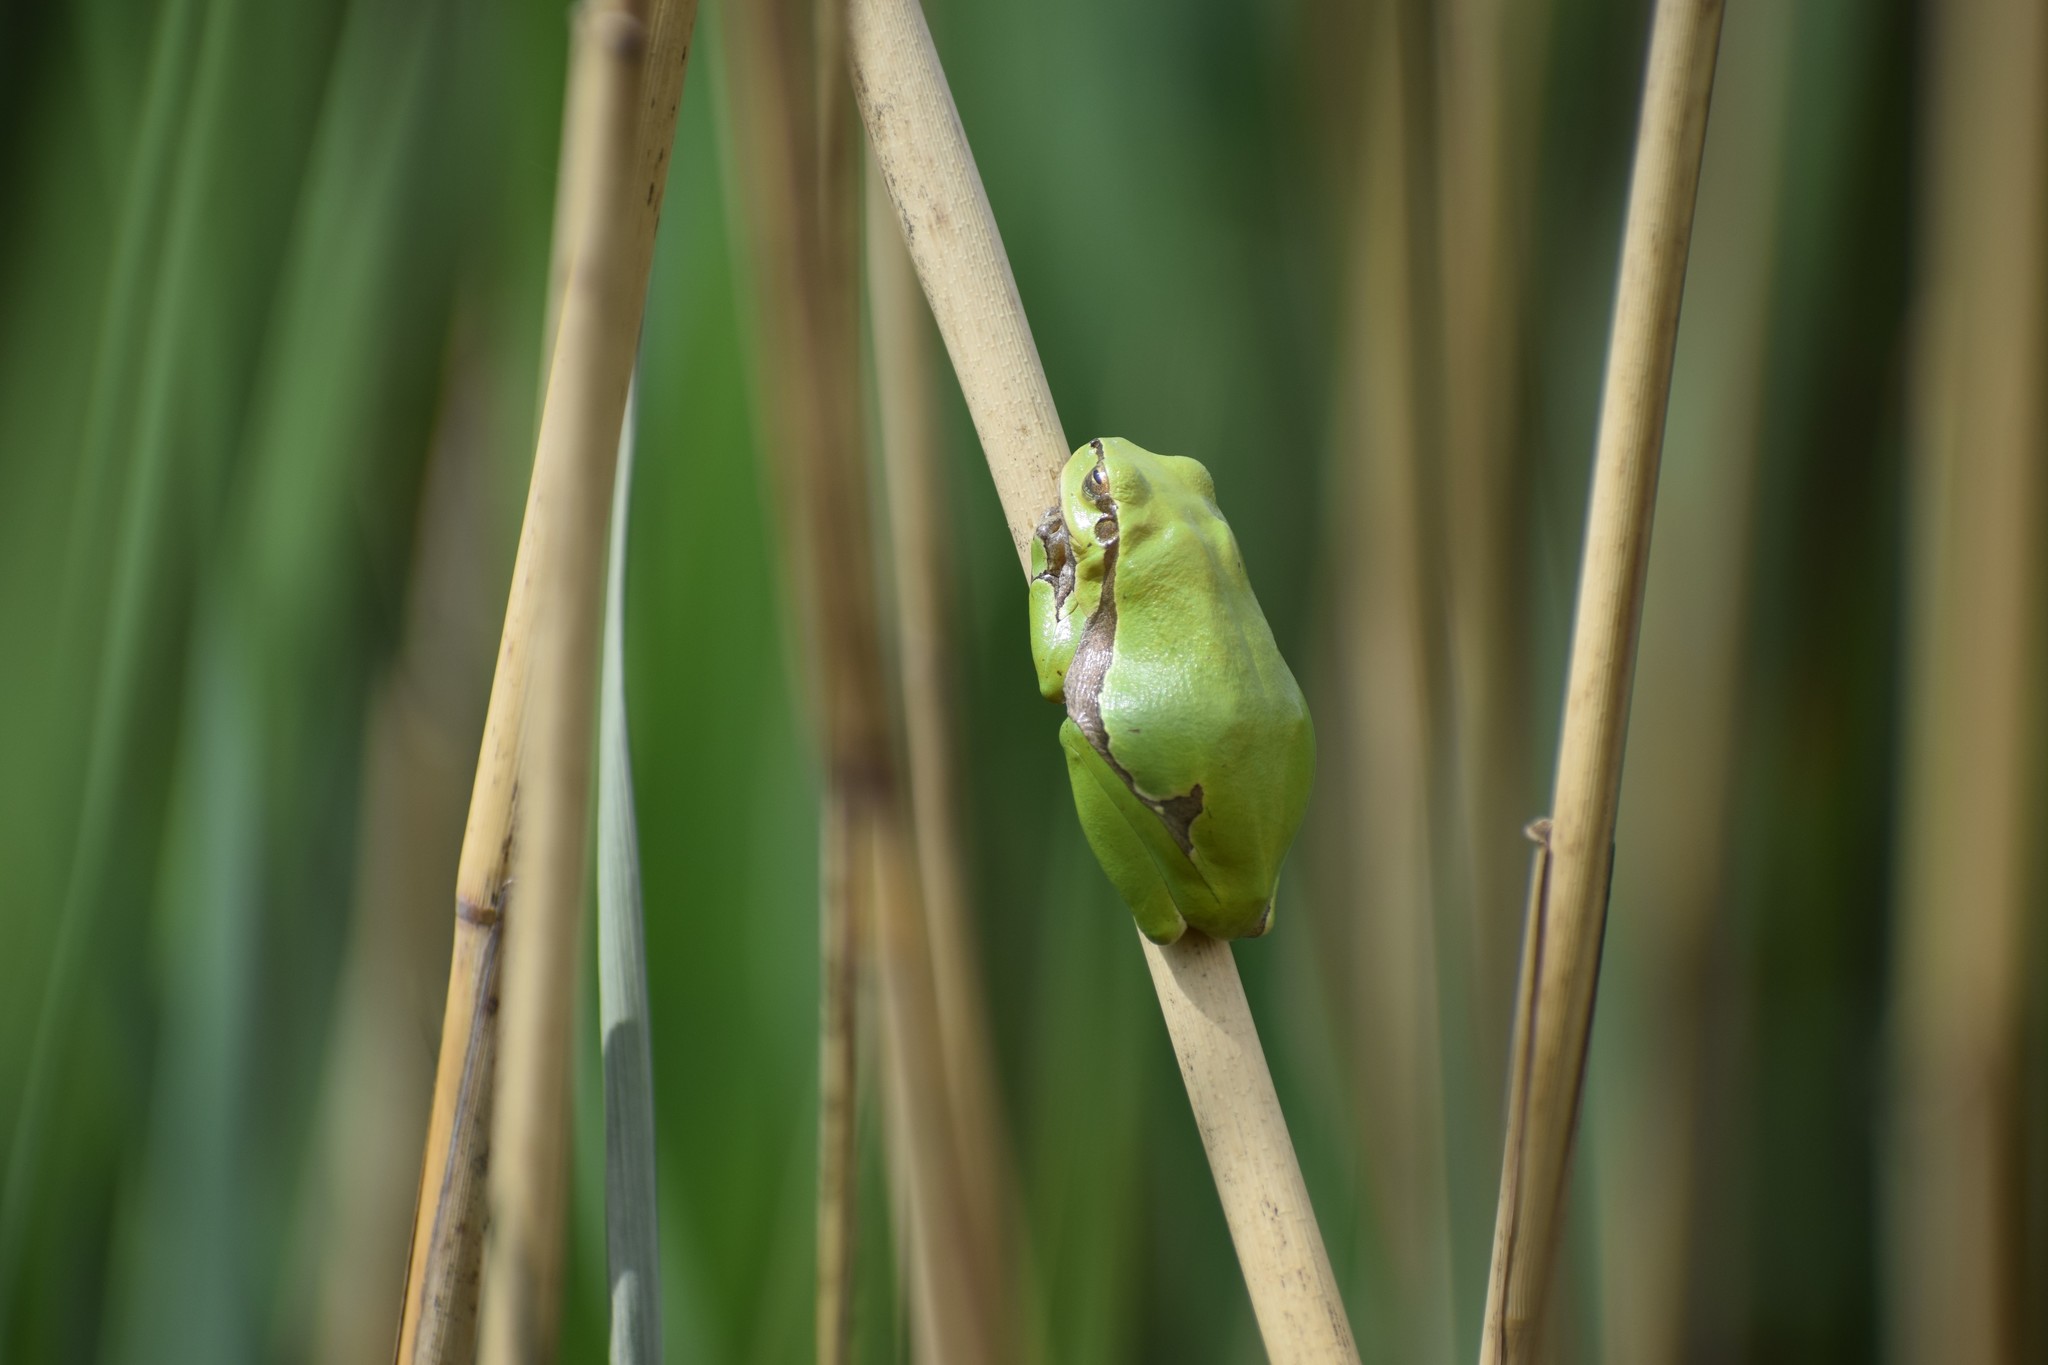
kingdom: Animalia
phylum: Chordata
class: Amphibia
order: Anura
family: Hylidae
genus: Hyla
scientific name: Hyla arborea
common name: Common tree frog
